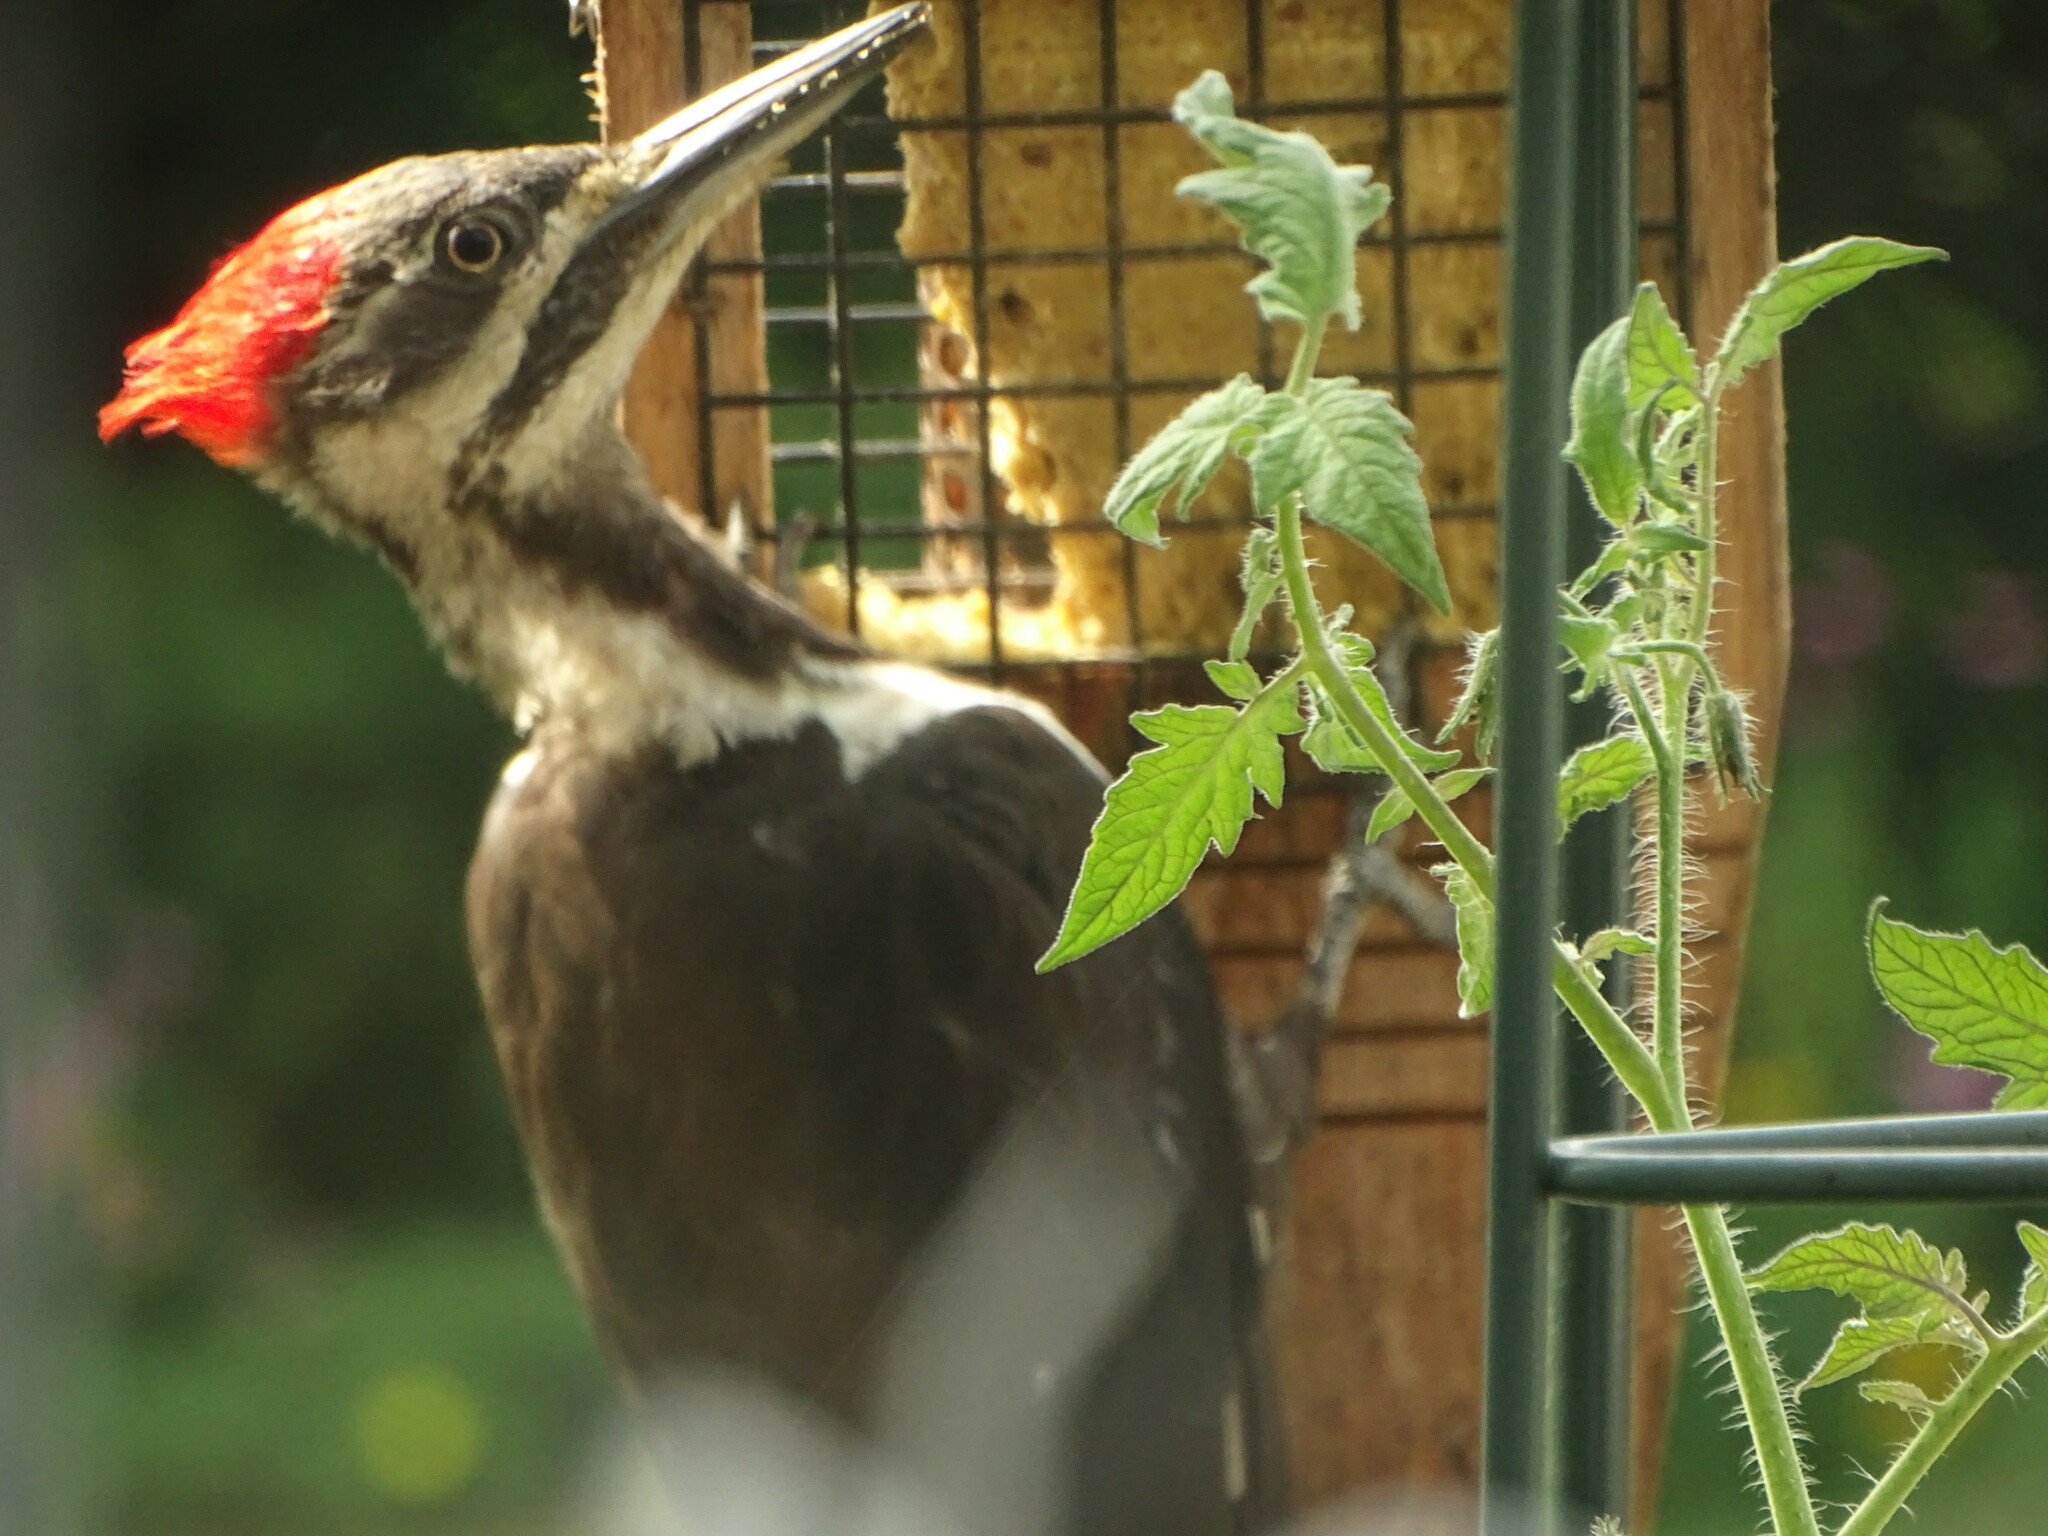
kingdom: Animalia
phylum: Chordata
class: Aves
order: Piciformes
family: Picidae
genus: Dryocopus
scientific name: Dryocopus pileatus
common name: Pileated woodpecker
